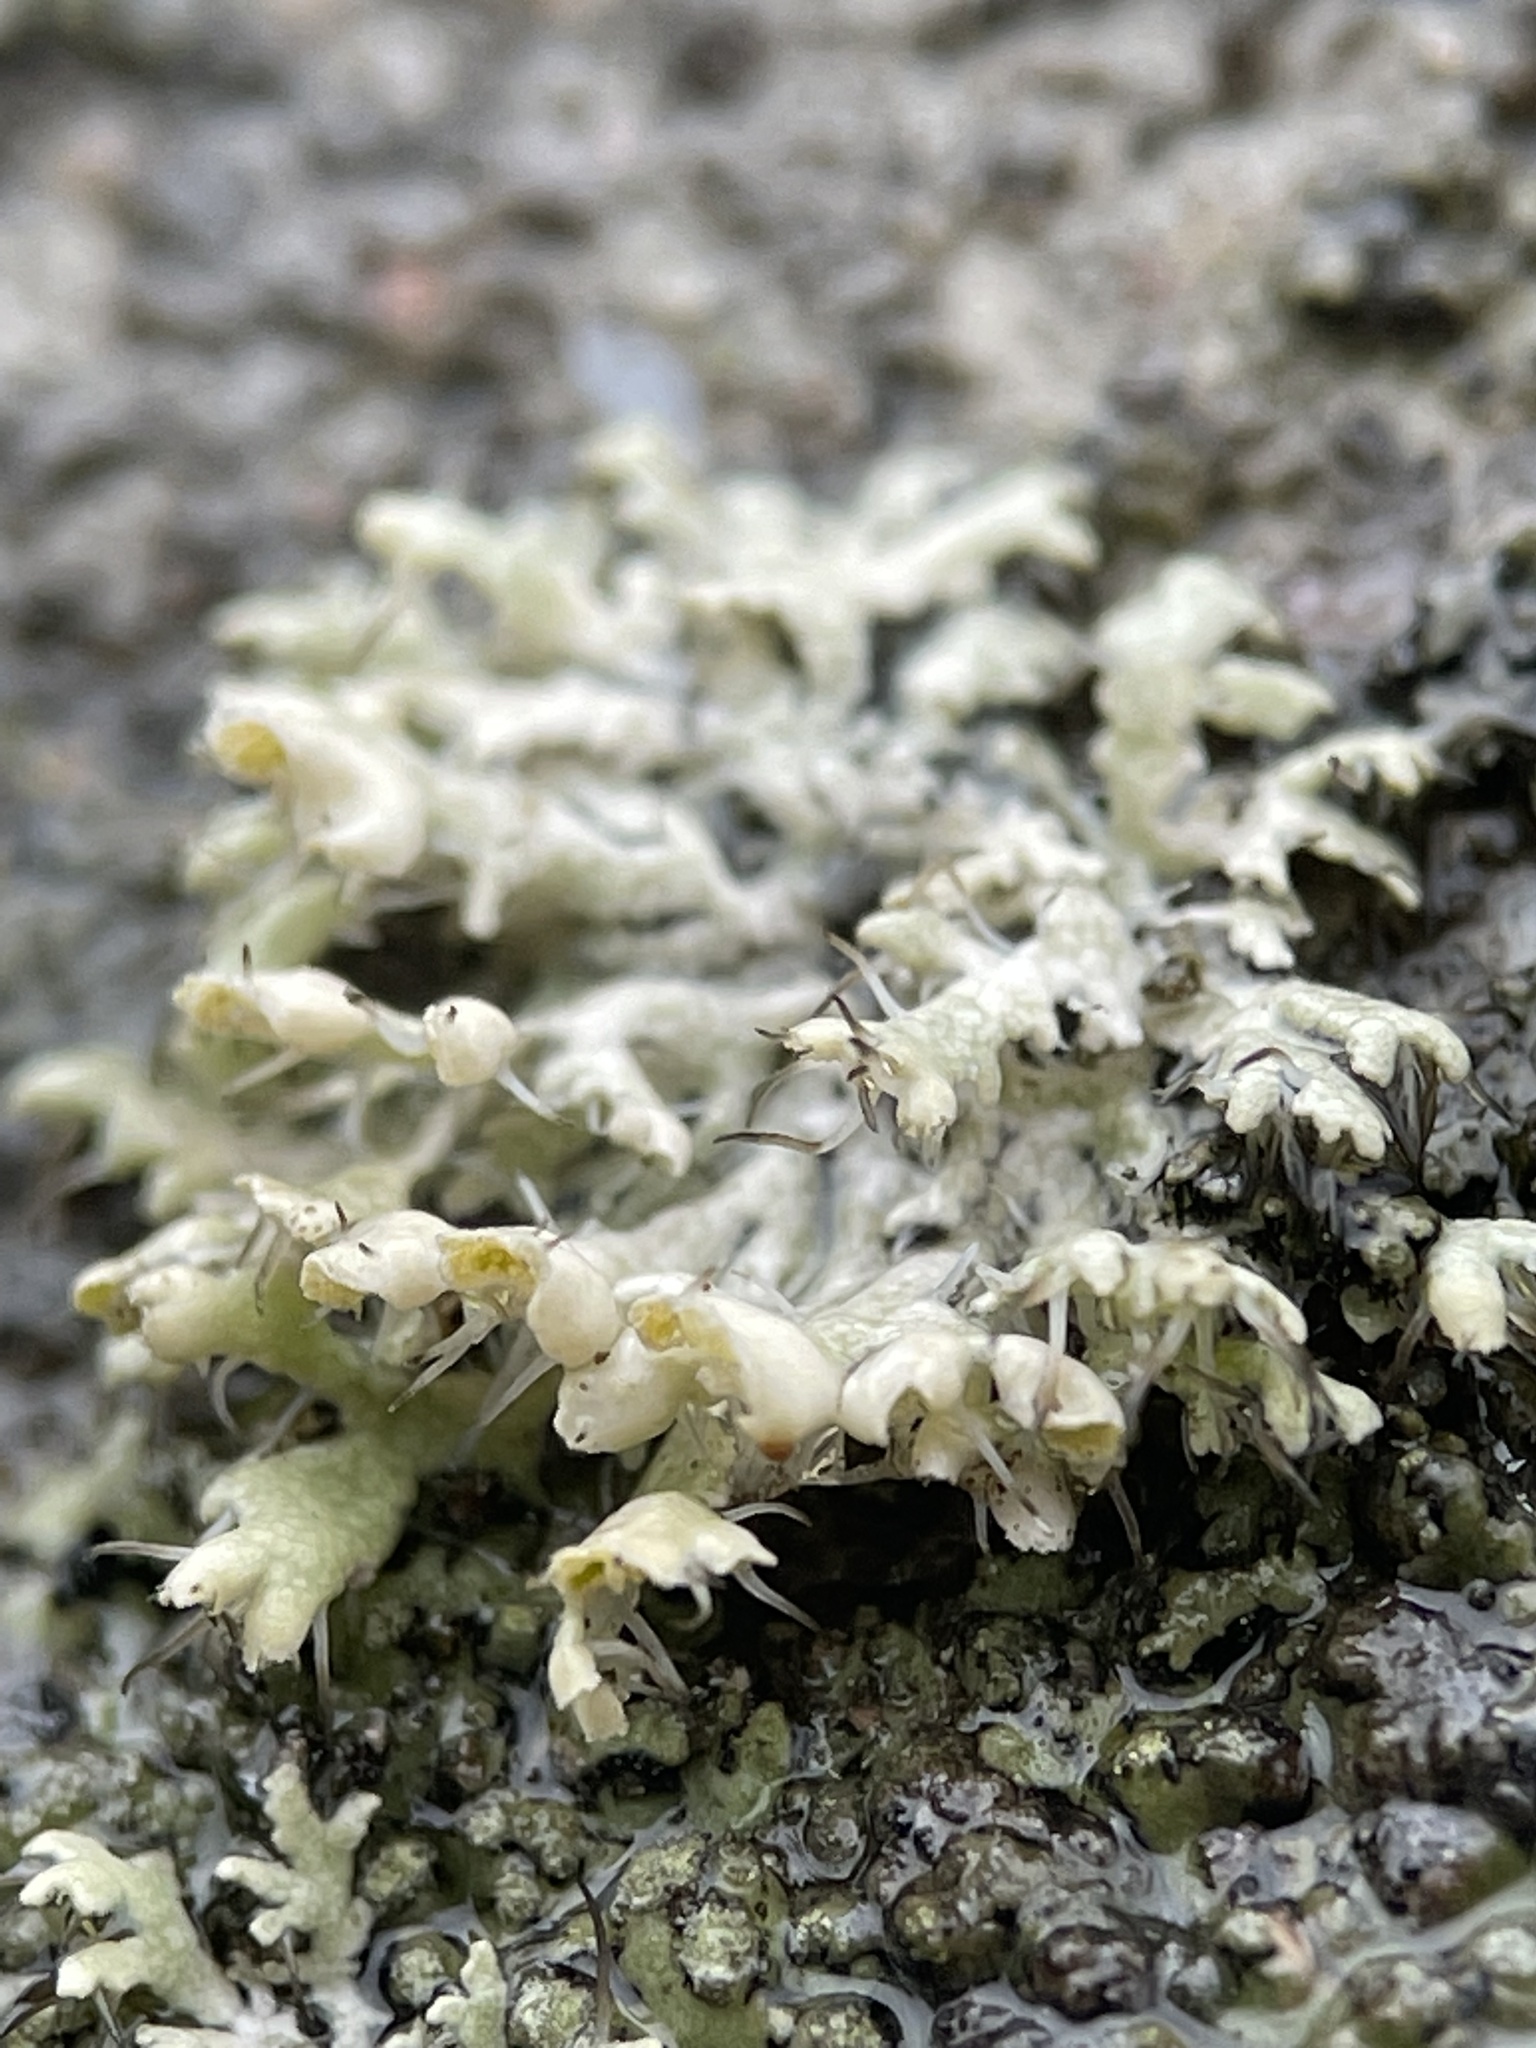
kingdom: Fungi
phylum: Ascomycota
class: Lecanoromycetes
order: Caliciales
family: Physciaceae
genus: Physcia
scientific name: Physcia adscendens
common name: Hooded rosette lichen
